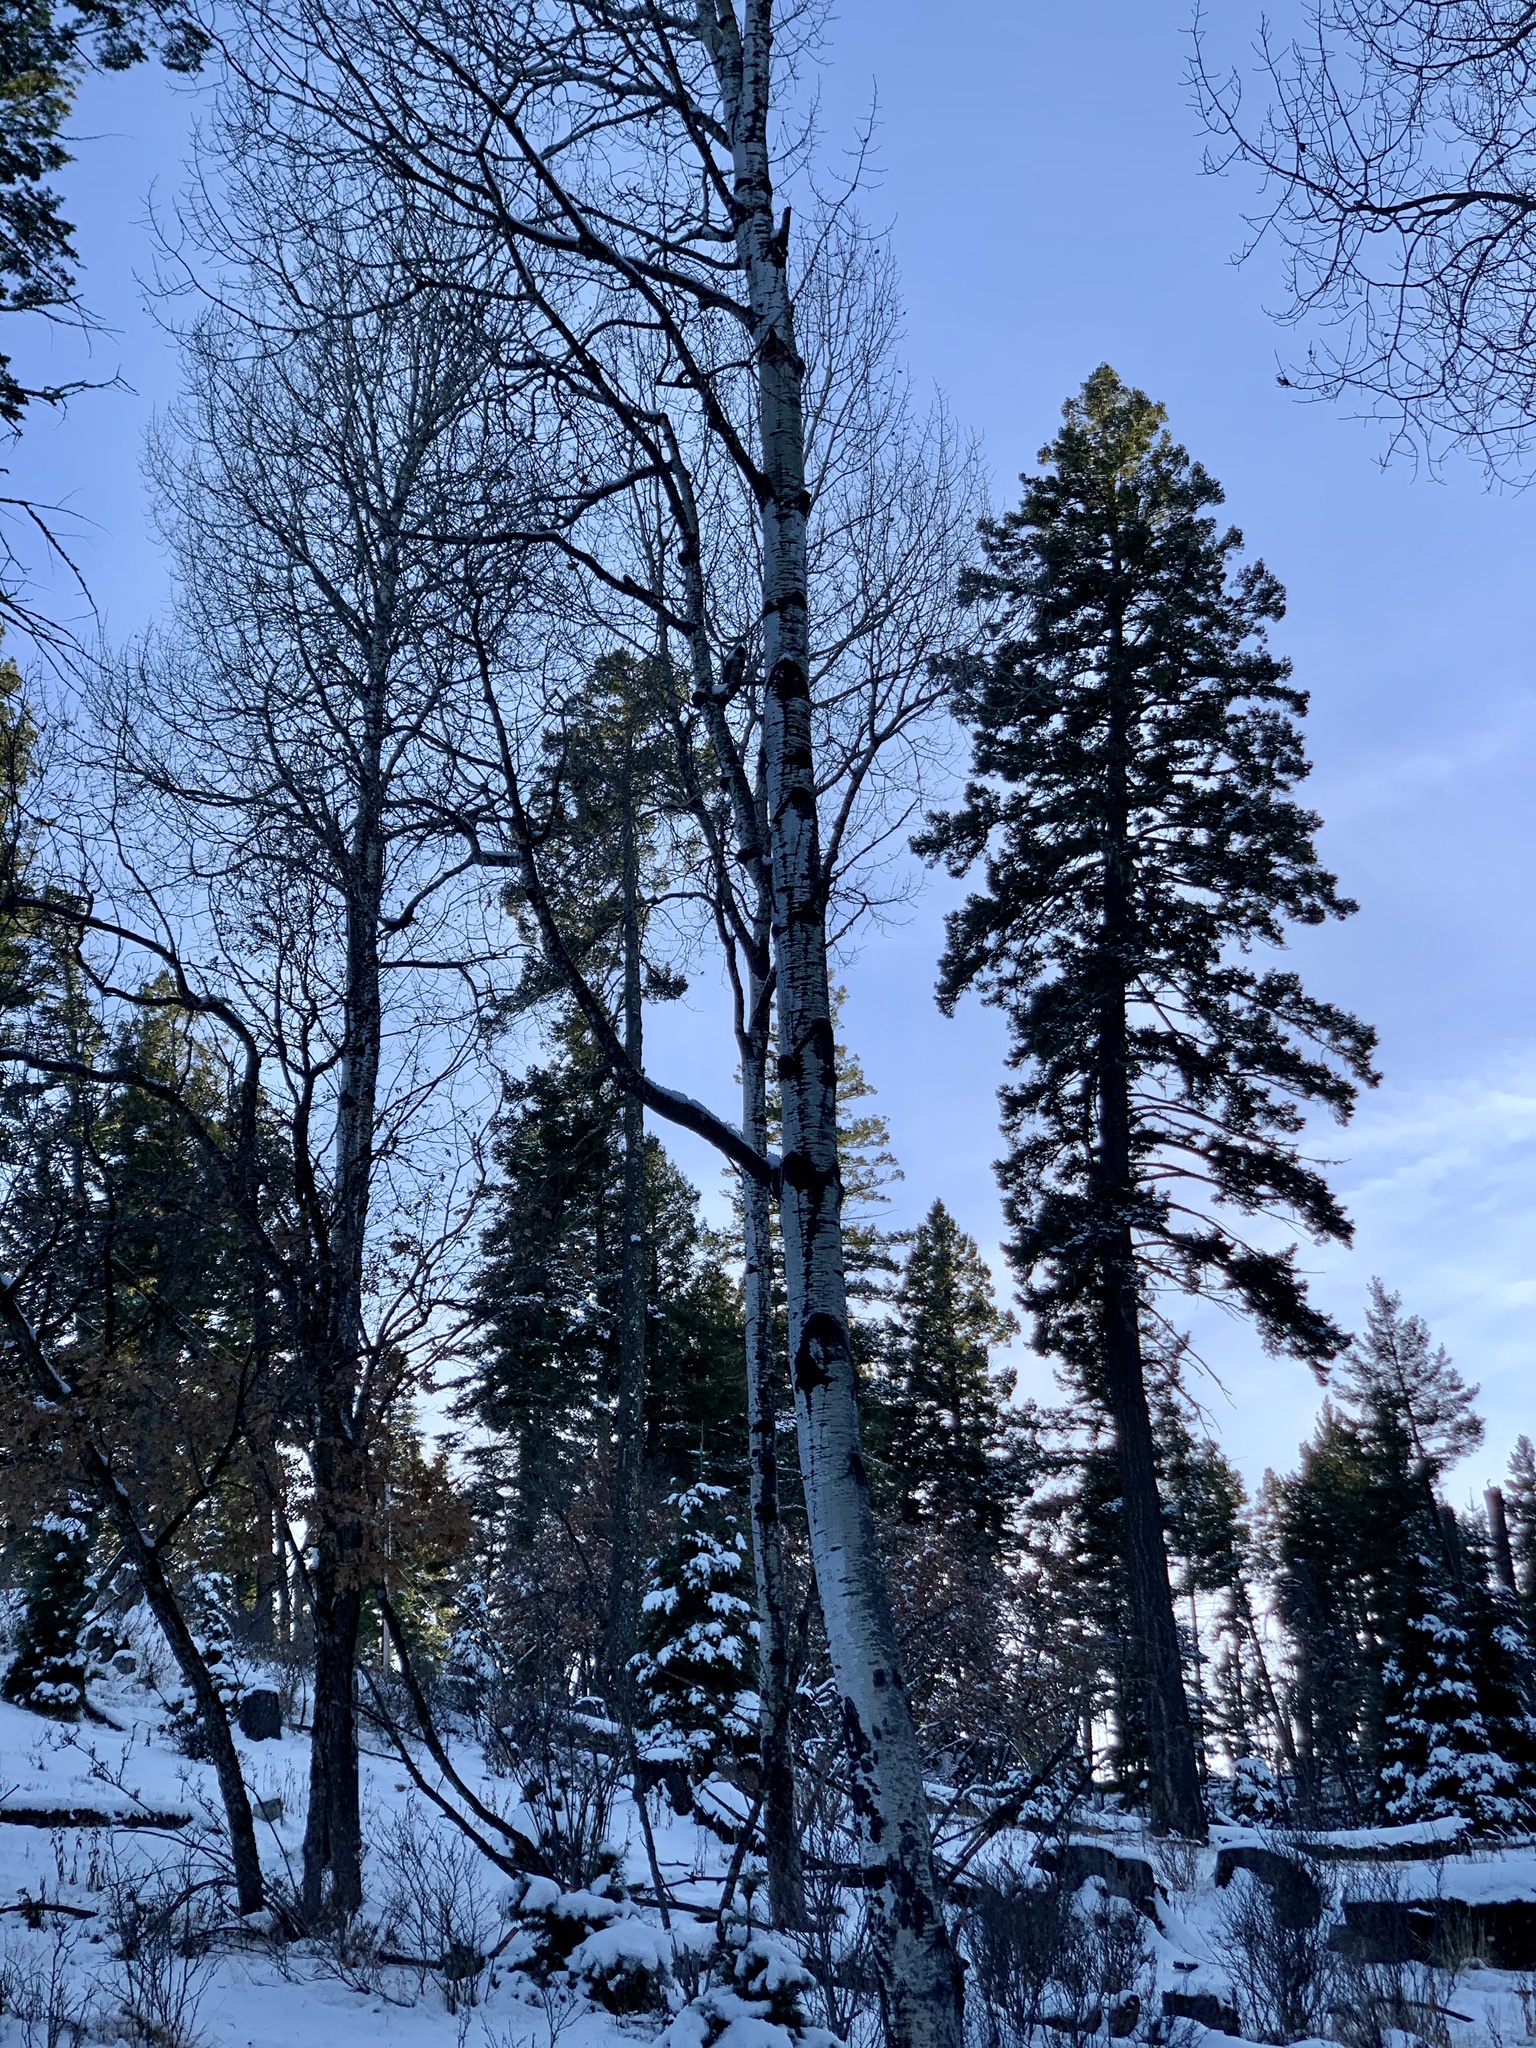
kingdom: Plantae
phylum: Tracheophyta
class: Magnoliopsida
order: Malpighiales
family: Salicaceae
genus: Populus
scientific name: Populus tremuloides
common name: Quaking aspen
